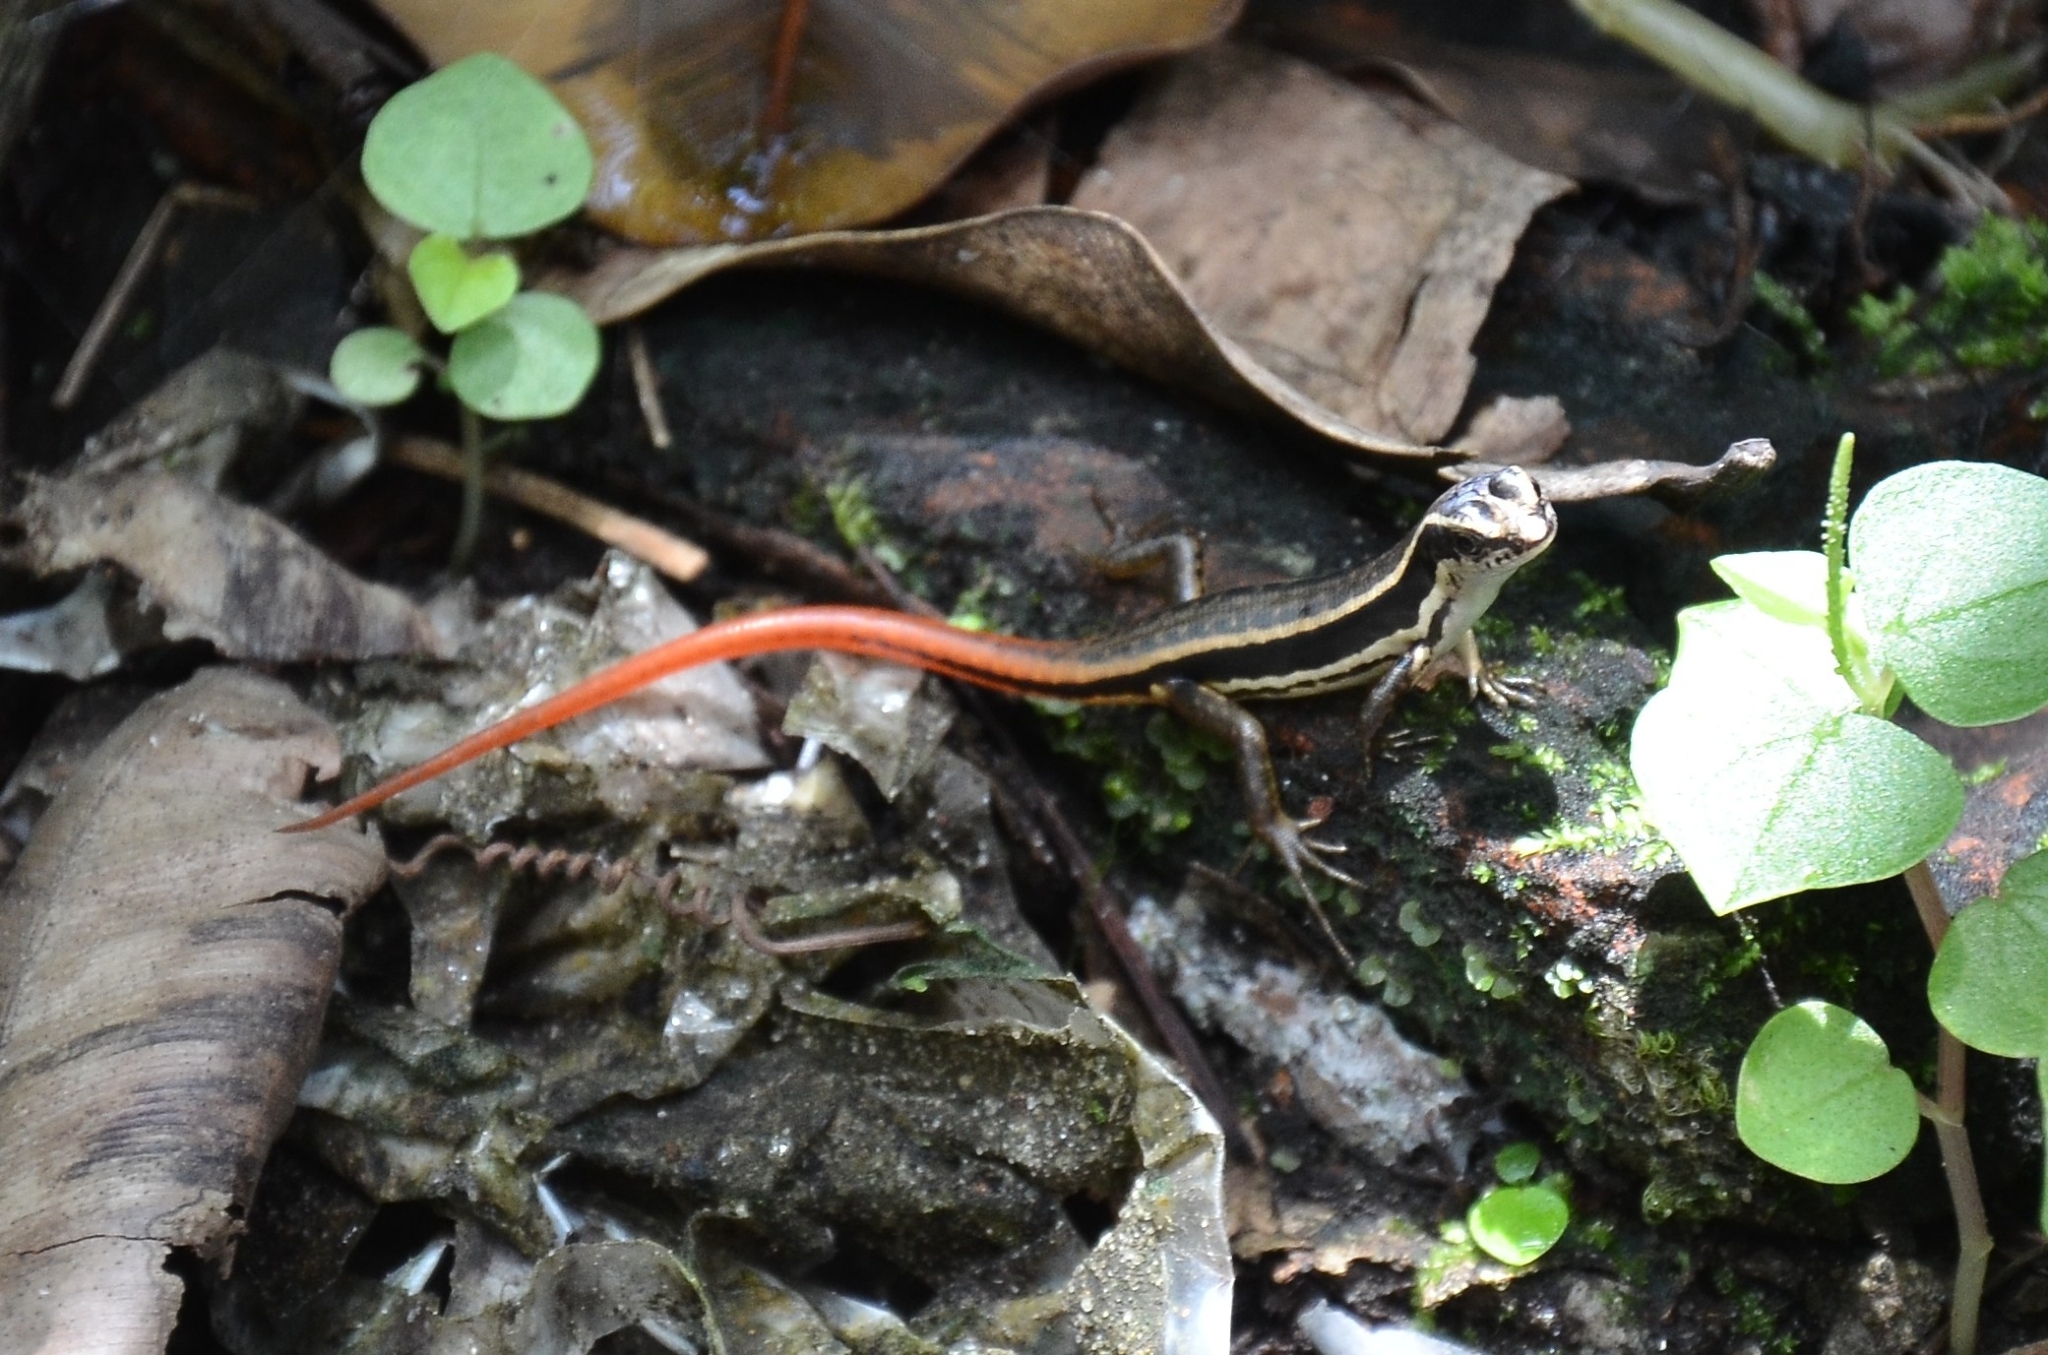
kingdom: Animalia
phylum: Chordata
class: Squamata
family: Scincidae
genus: Sphenomorphus
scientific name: Sphenomorphus dussumieri
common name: Dussumier's forest skink
